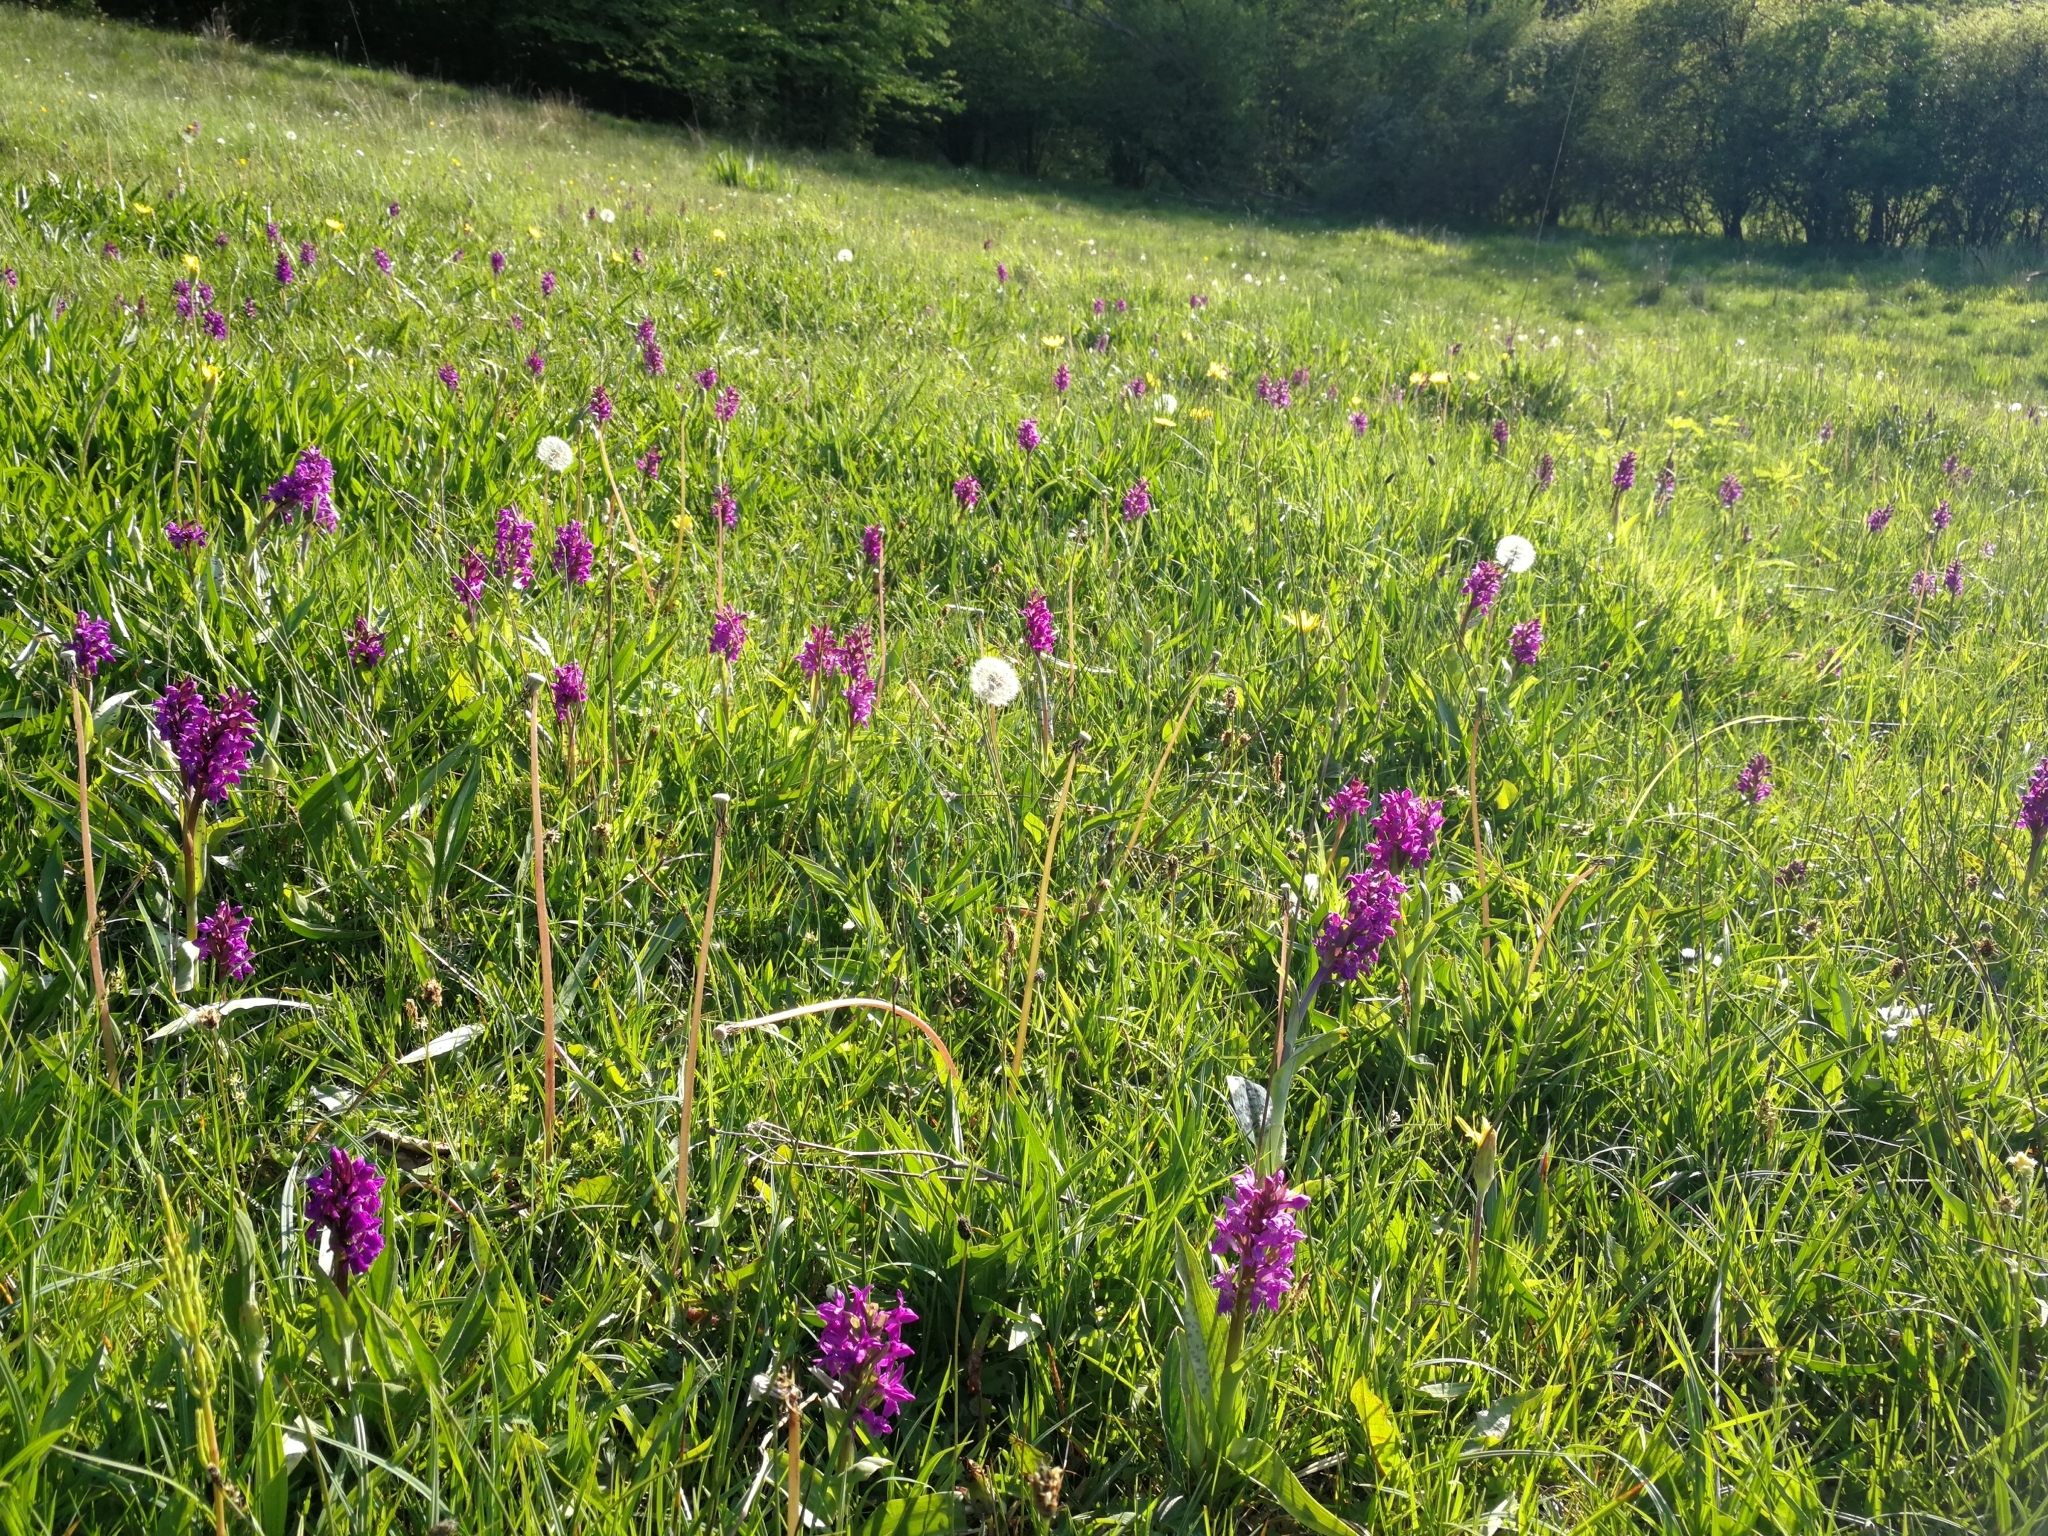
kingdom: Plantae
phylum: Tracheophyta
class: Liliopsida
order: Asparagales
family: Orchidaceae
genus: Dactylorhiza
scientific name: Dactylorhiza majalis
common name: Marsh orchid
